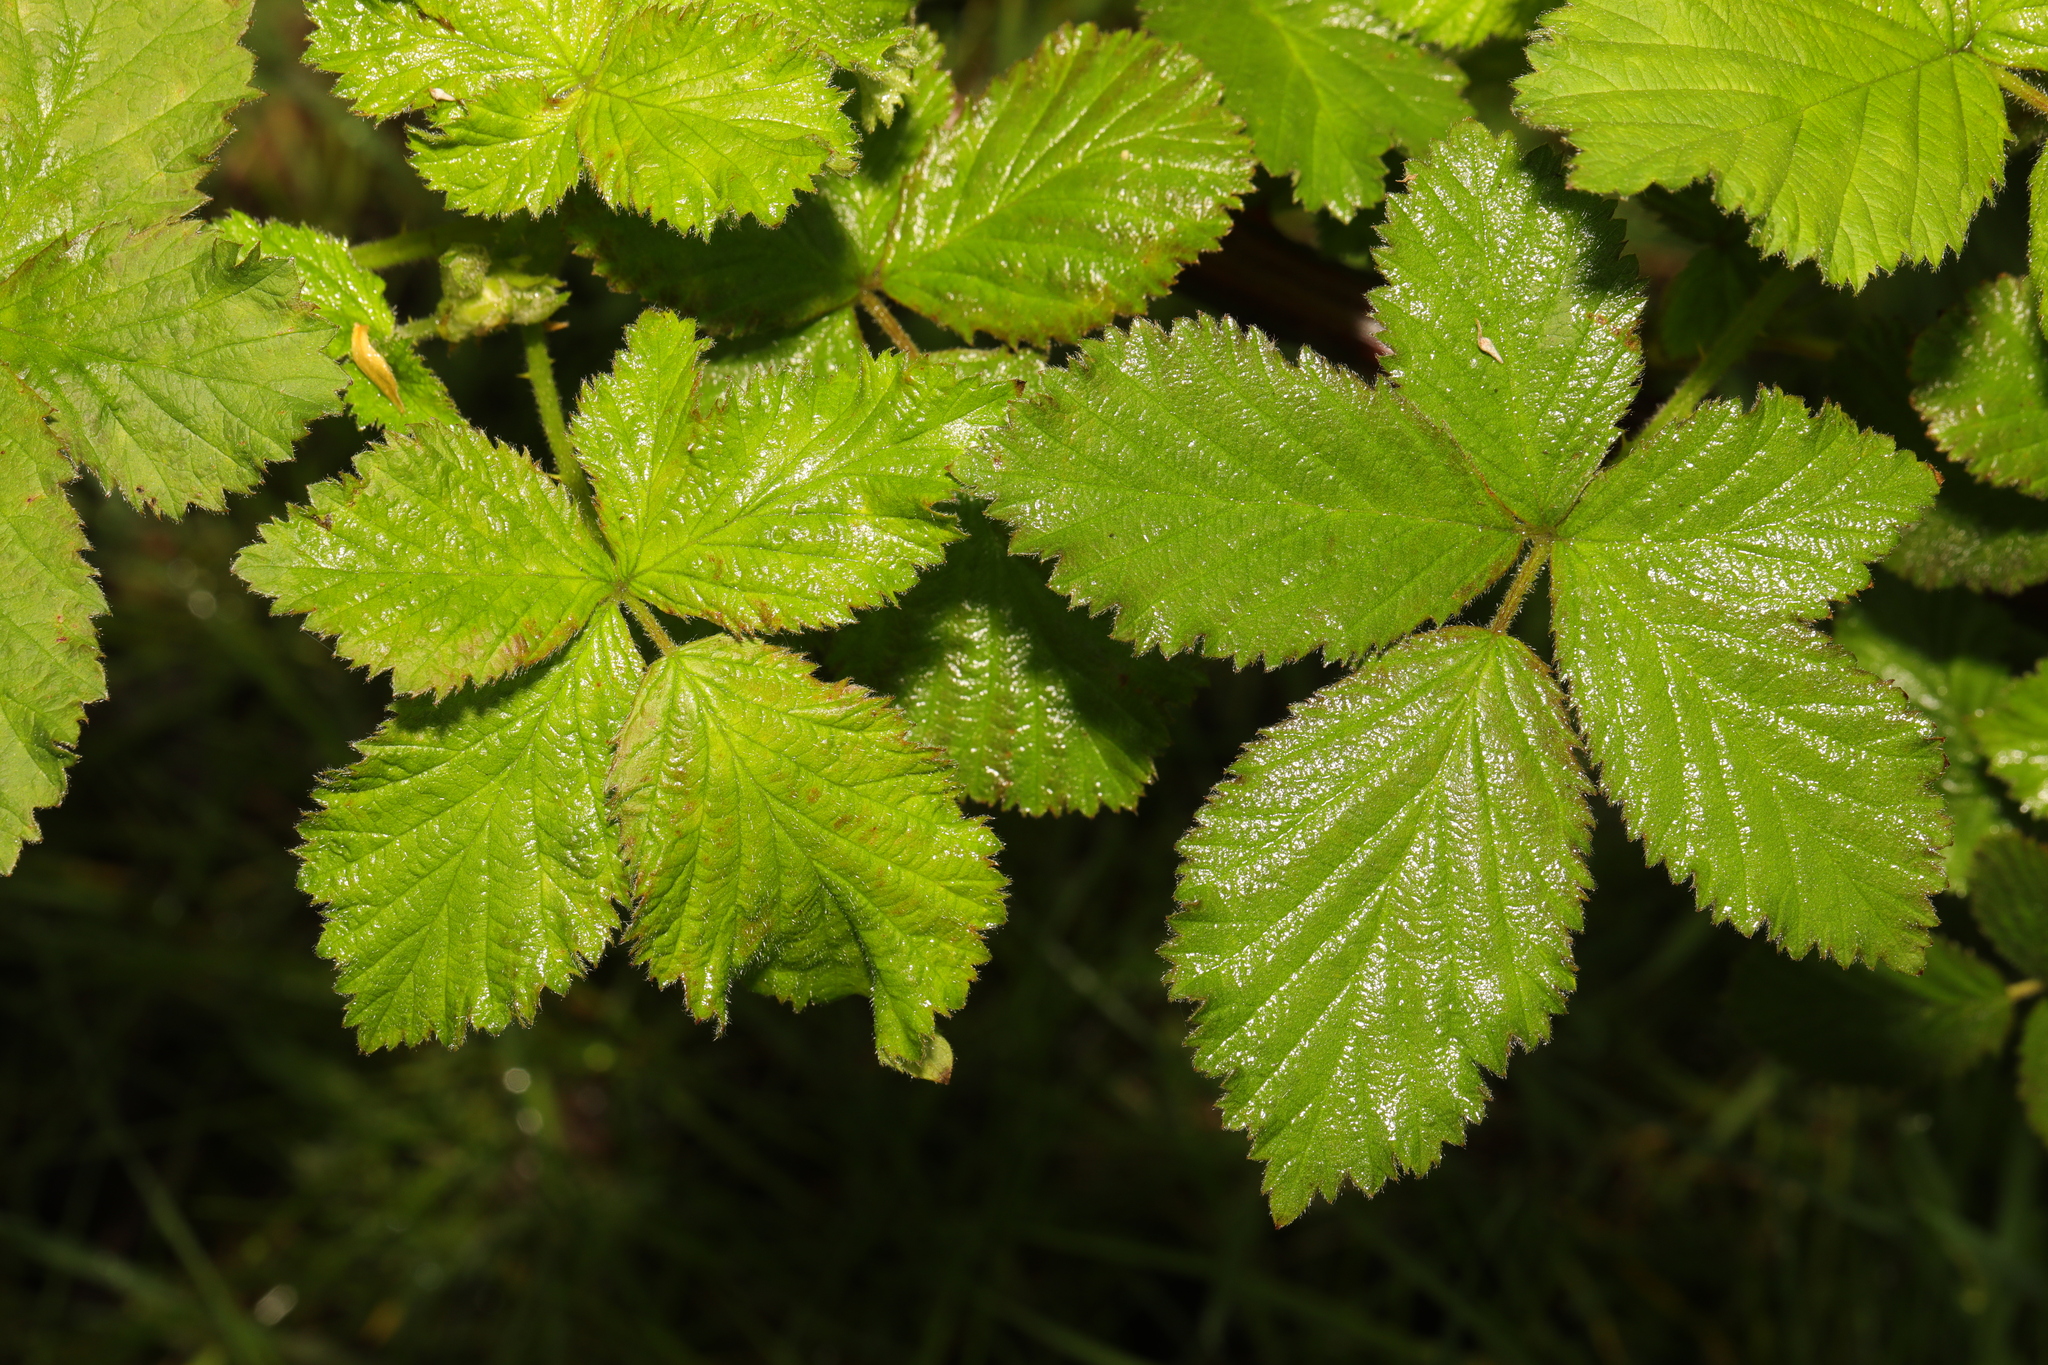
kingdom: Plantae
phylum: Tracheophyta
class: Magnoliopsida
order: Rosales
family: Rosaceae
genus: Rubus
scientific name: Rubus armeniacus
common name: Himalayan blackberry
